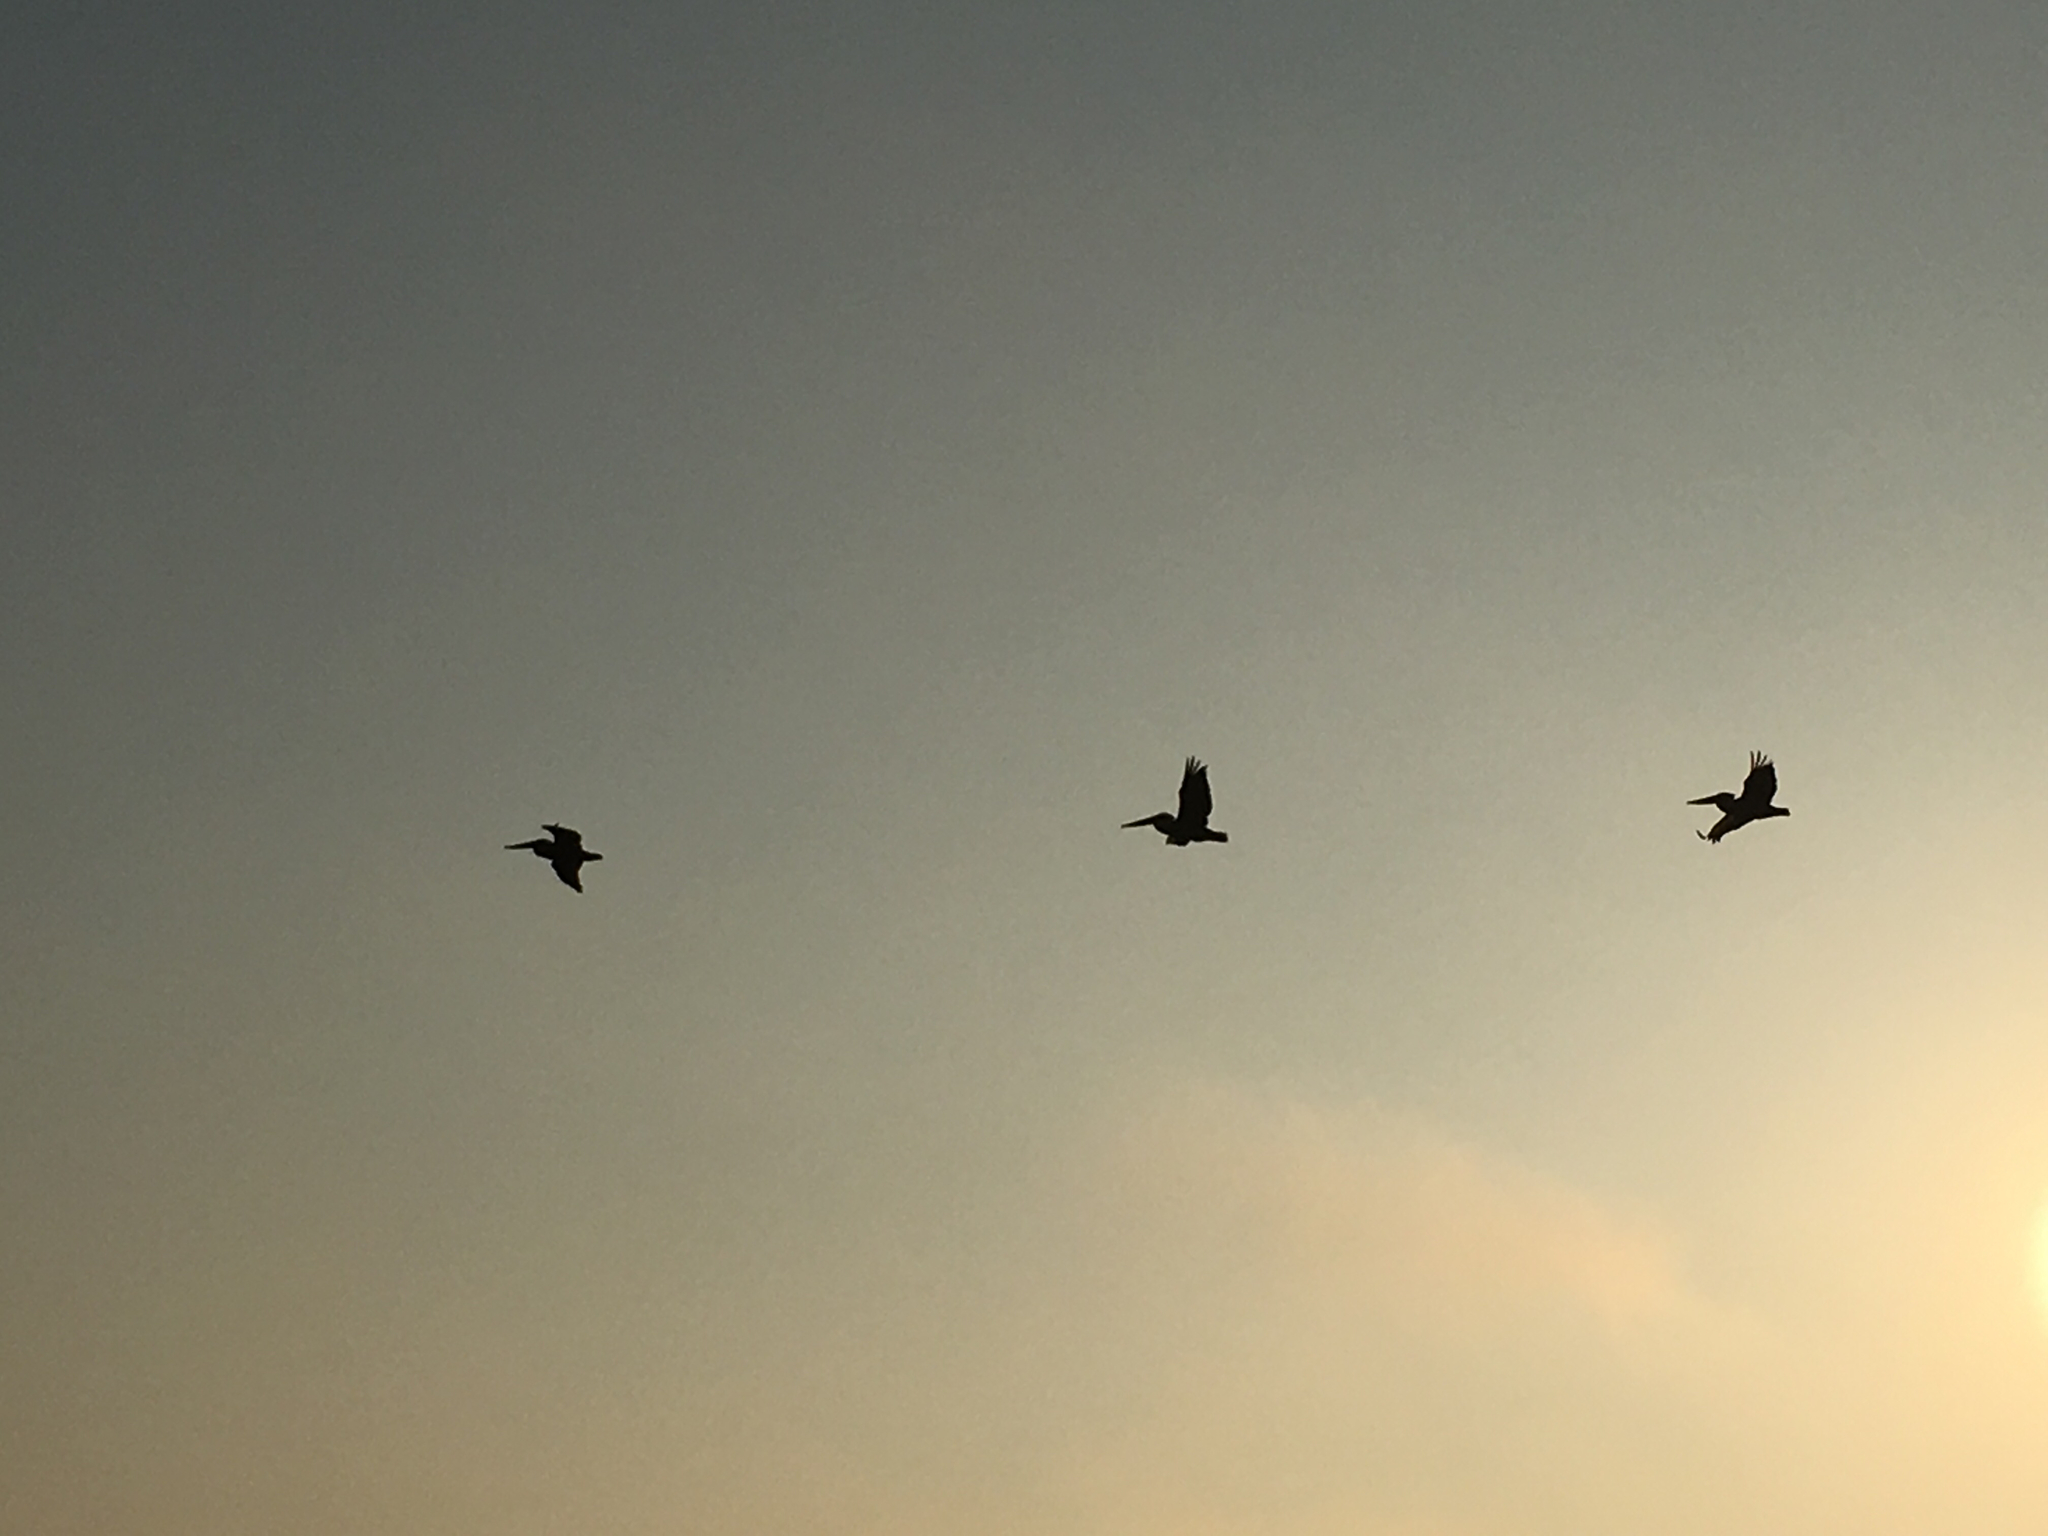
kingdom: Animalia
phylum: Chordata
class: Aves
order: Pelecaniformes
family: Pelecanidae
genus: Pelecanus
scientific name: Pelecanus occidentalis
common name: Brown pelican
